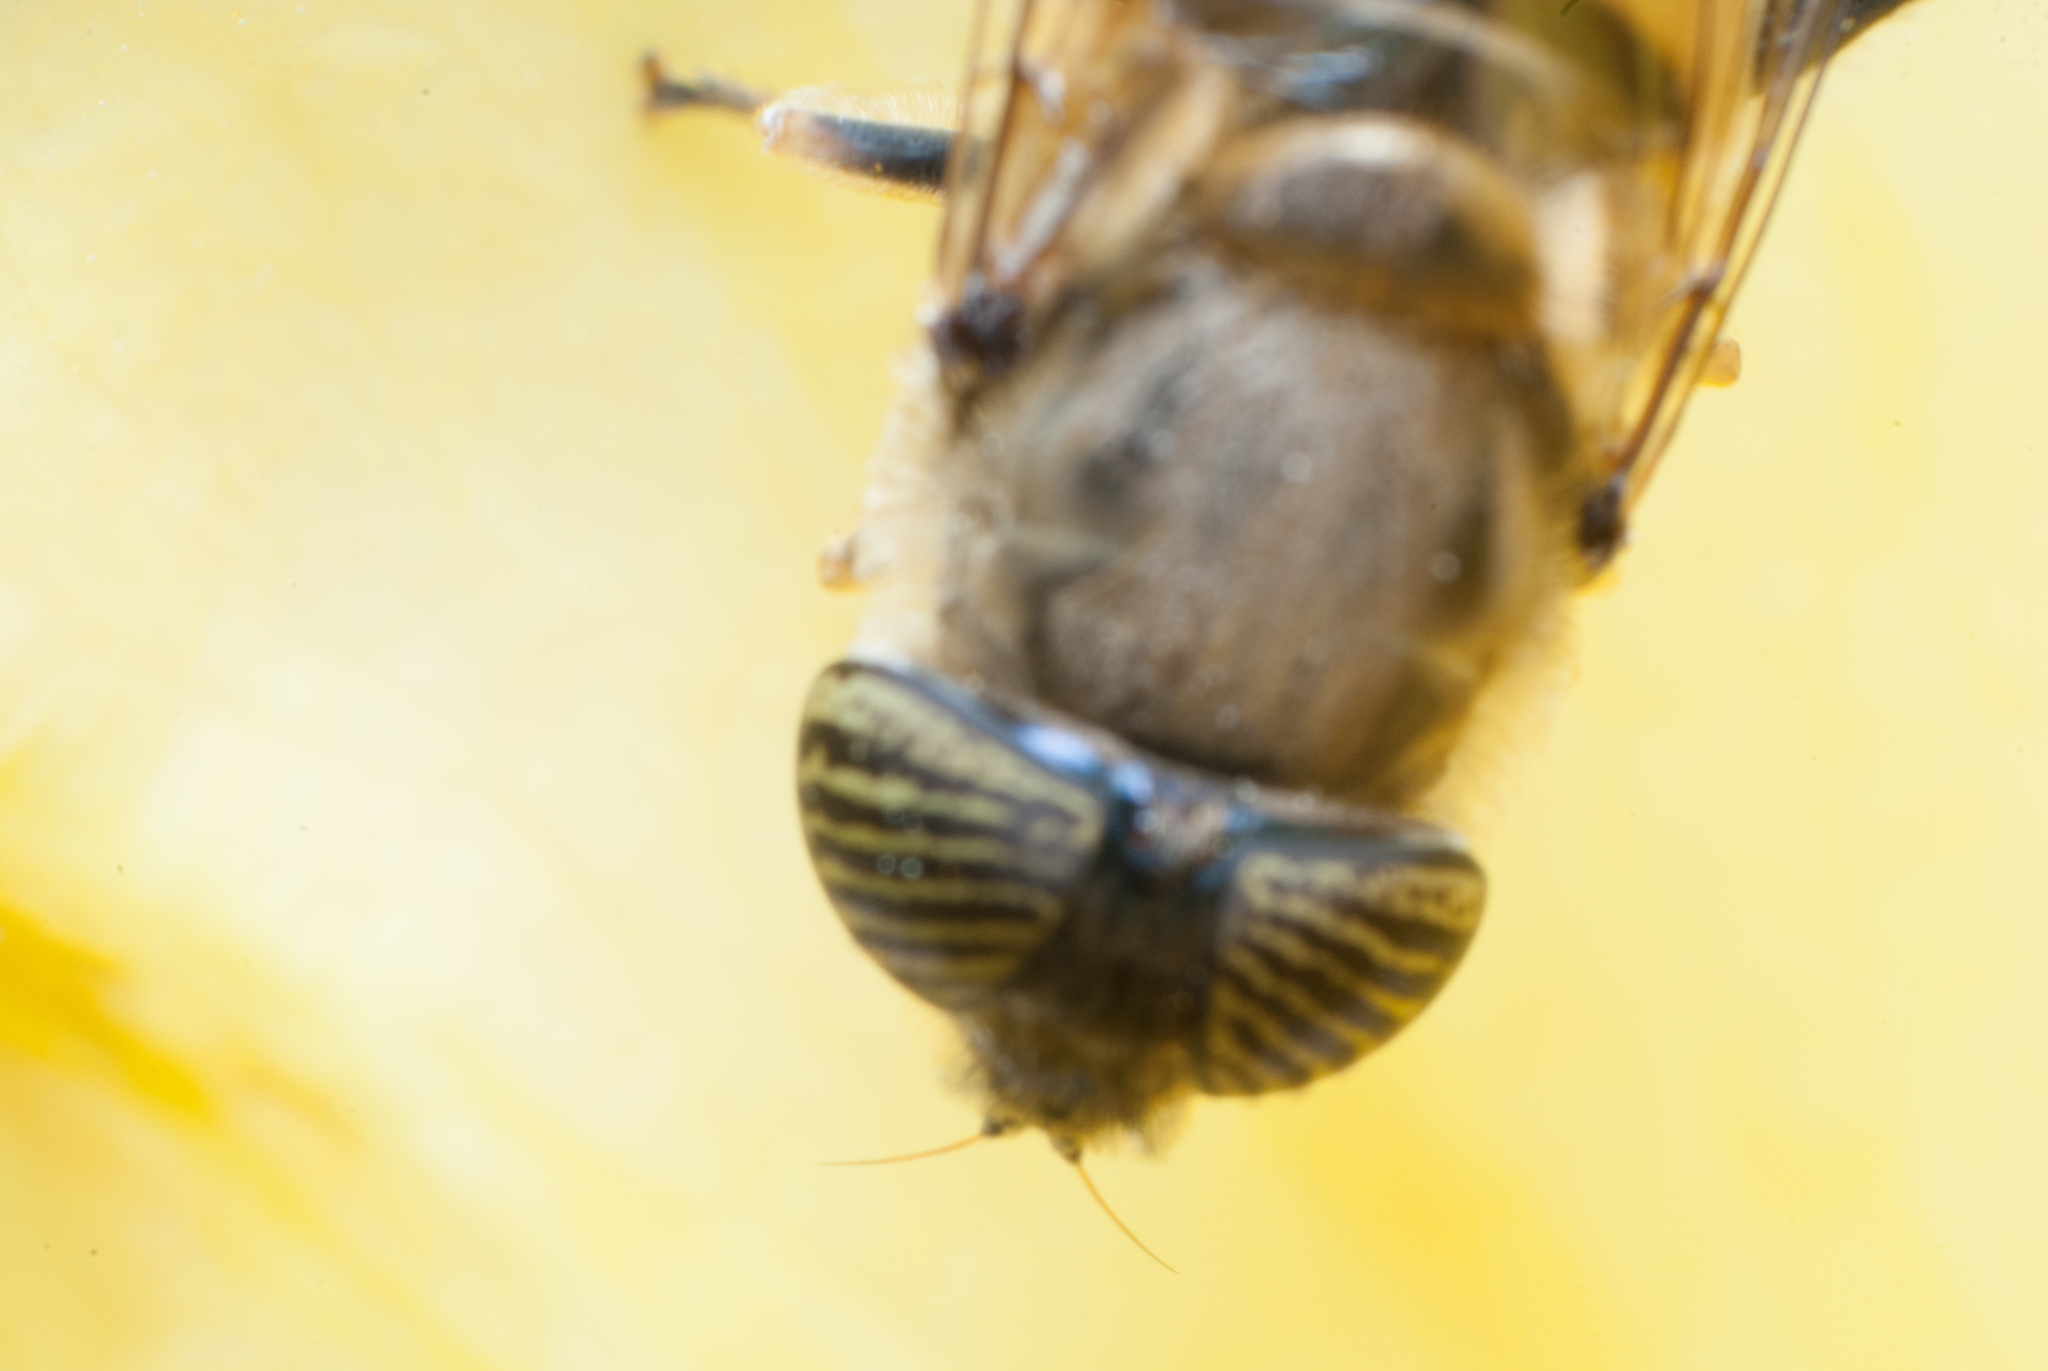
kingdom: Animalia
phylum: Arthropoda
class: Insecta
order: Diptera
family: Syrphidae
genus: Eristalinus
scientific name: Eristalinus taeniops
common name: Syrphid fly
